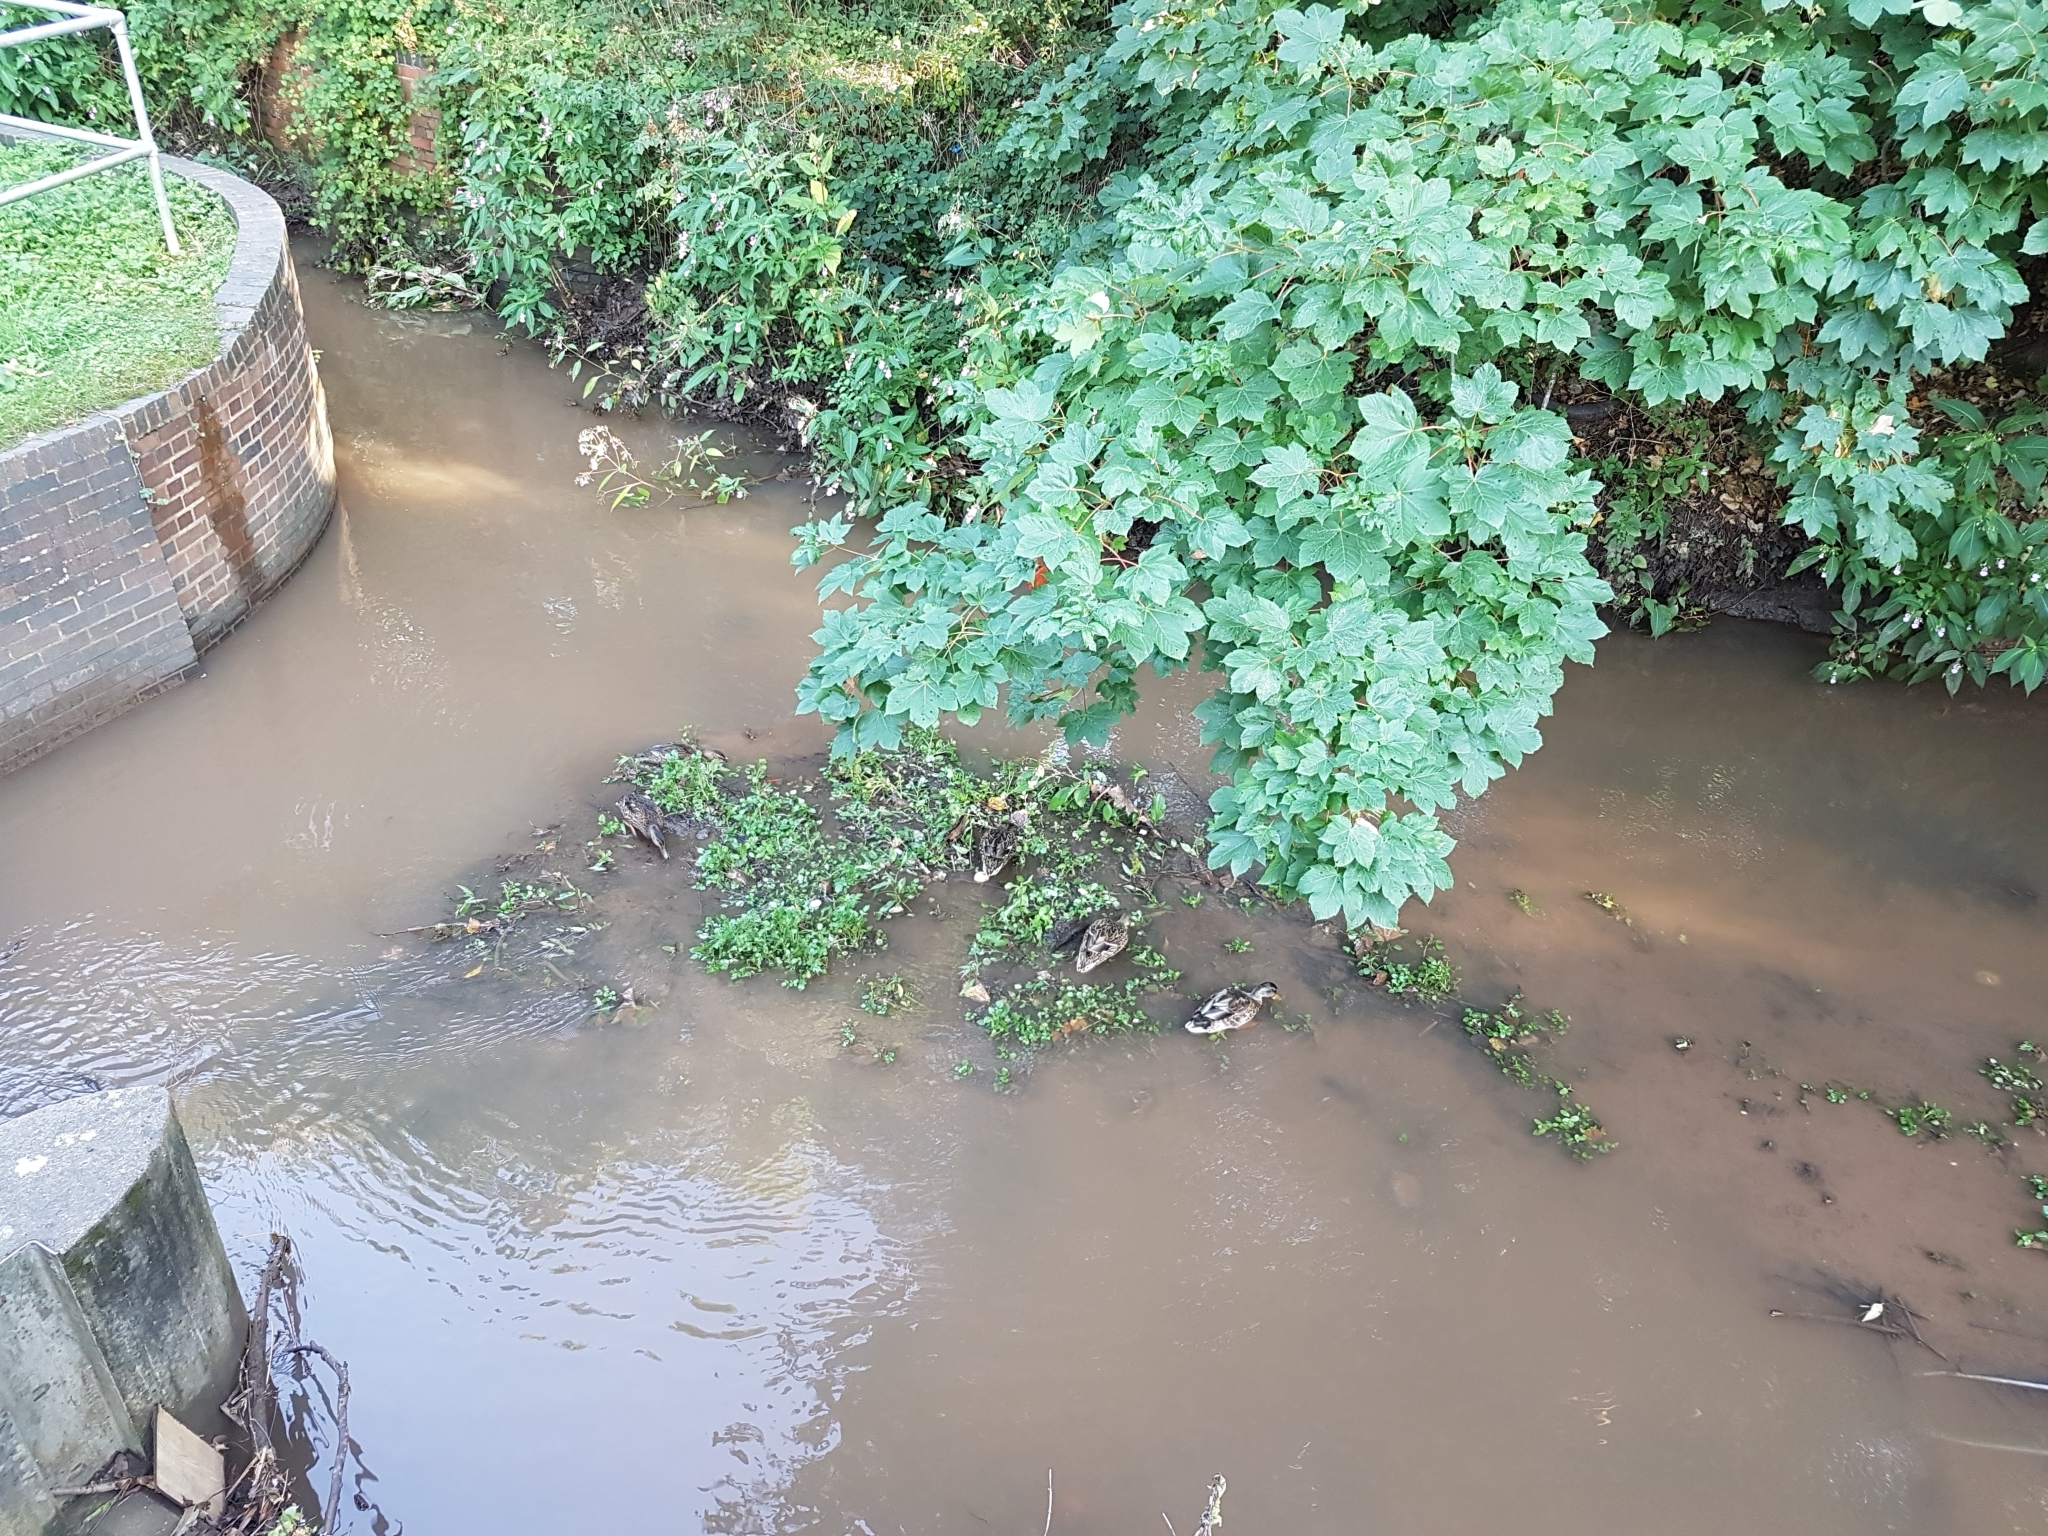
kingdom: Animalia
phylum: Chordata
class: Aves
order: Anseriformes
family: Anatidae
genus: Anas
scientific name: Anas platyrhynchos
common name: Mallard
